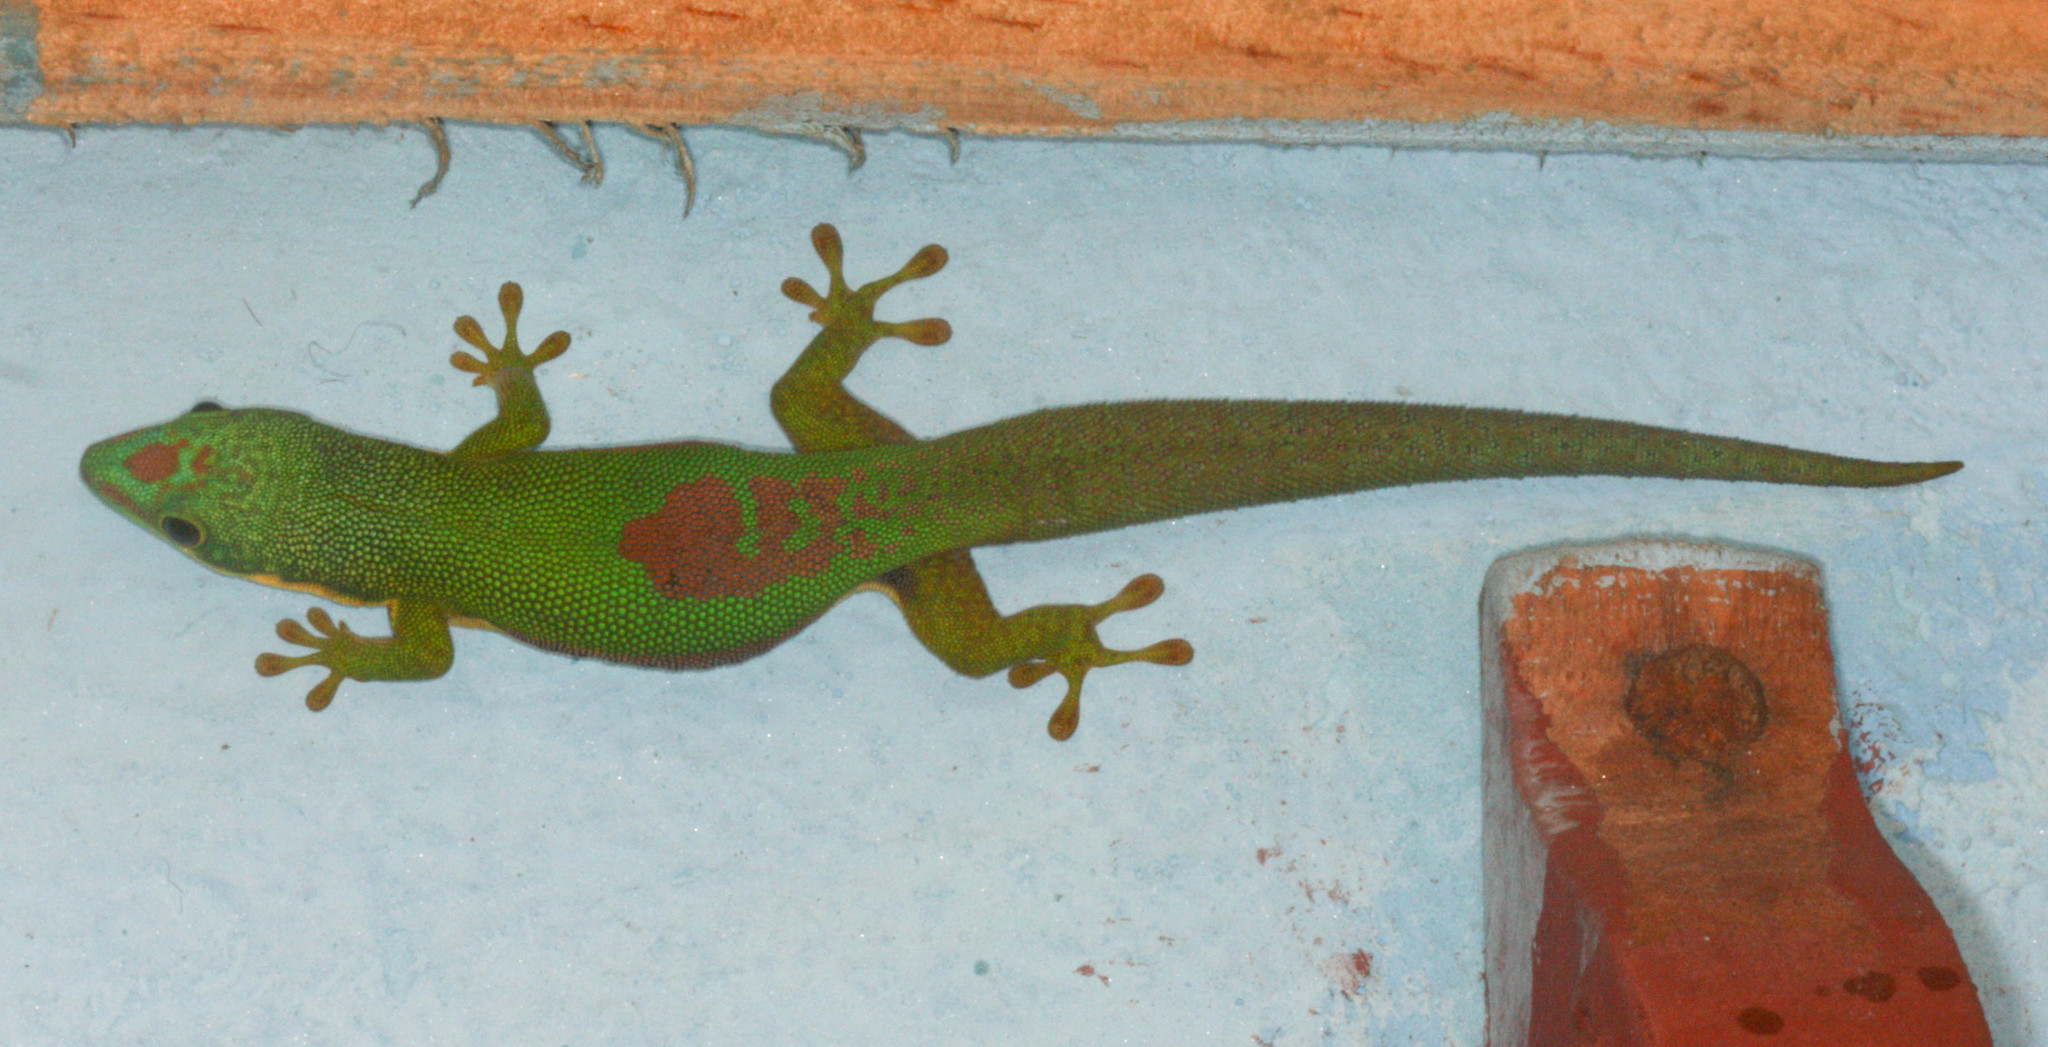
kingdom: Animalia
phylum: Chordata
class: Squamata
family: Gekkonidae
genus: Phelsuma
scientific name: Phelsuma lineata
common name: Lined day gecko
